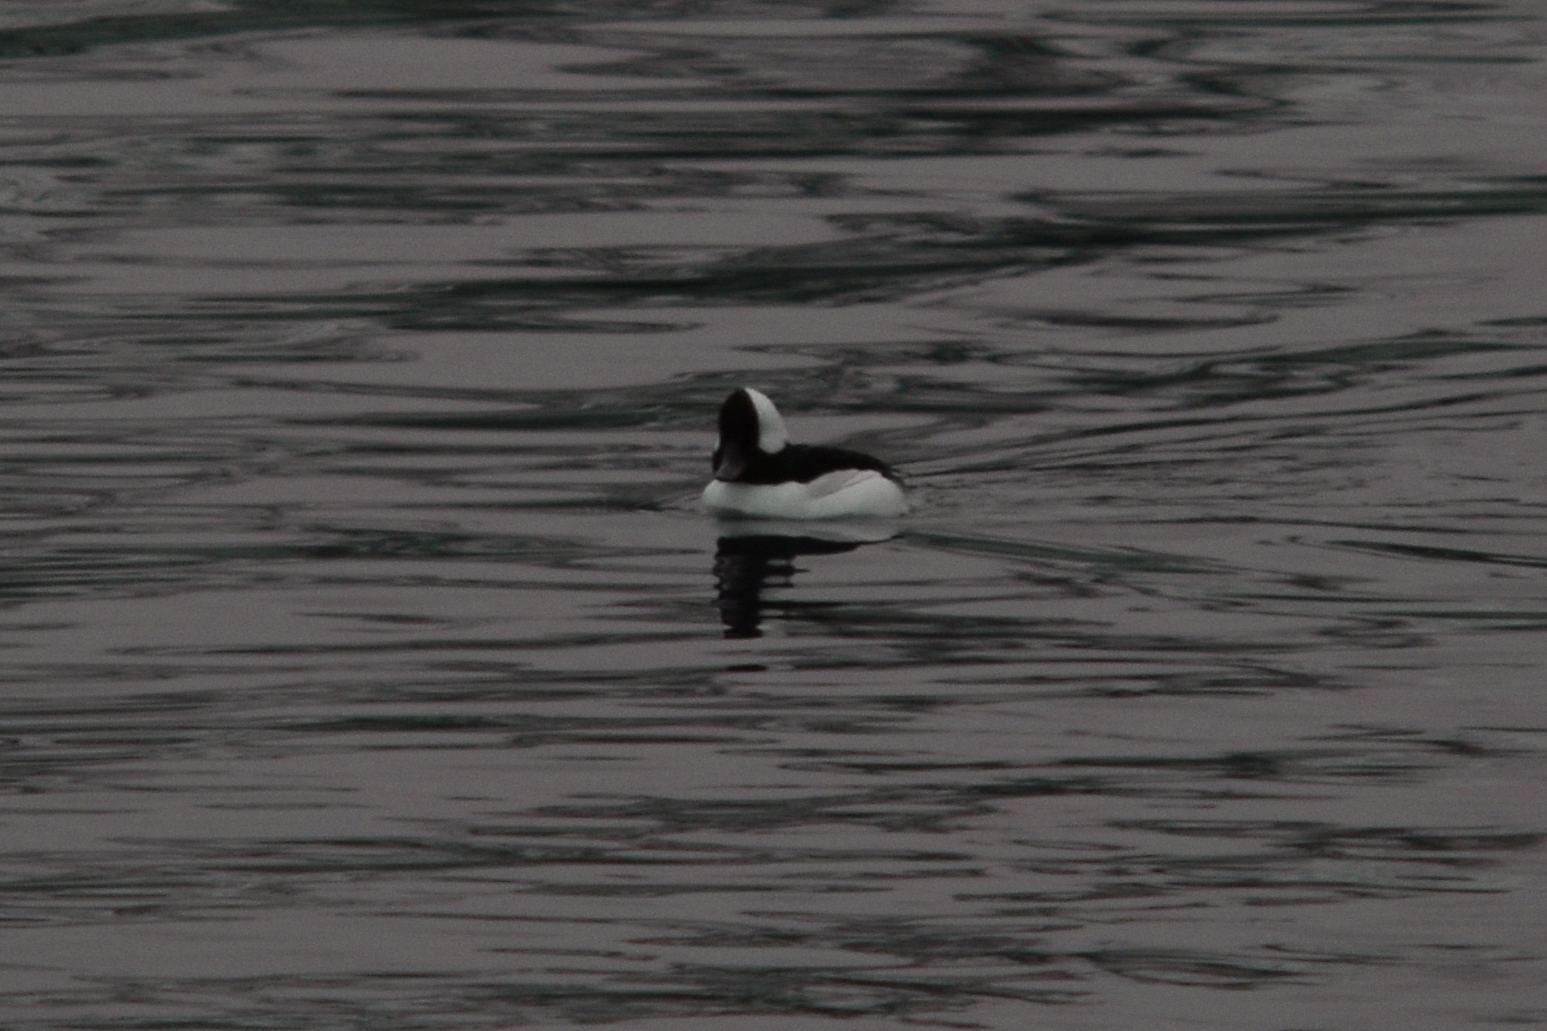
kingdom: Animalia
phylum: Chordata
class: Aves
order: Anseriformes
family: Anatidae
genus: Bucephala
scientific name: Bucephala albeola
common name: Bufflehead
